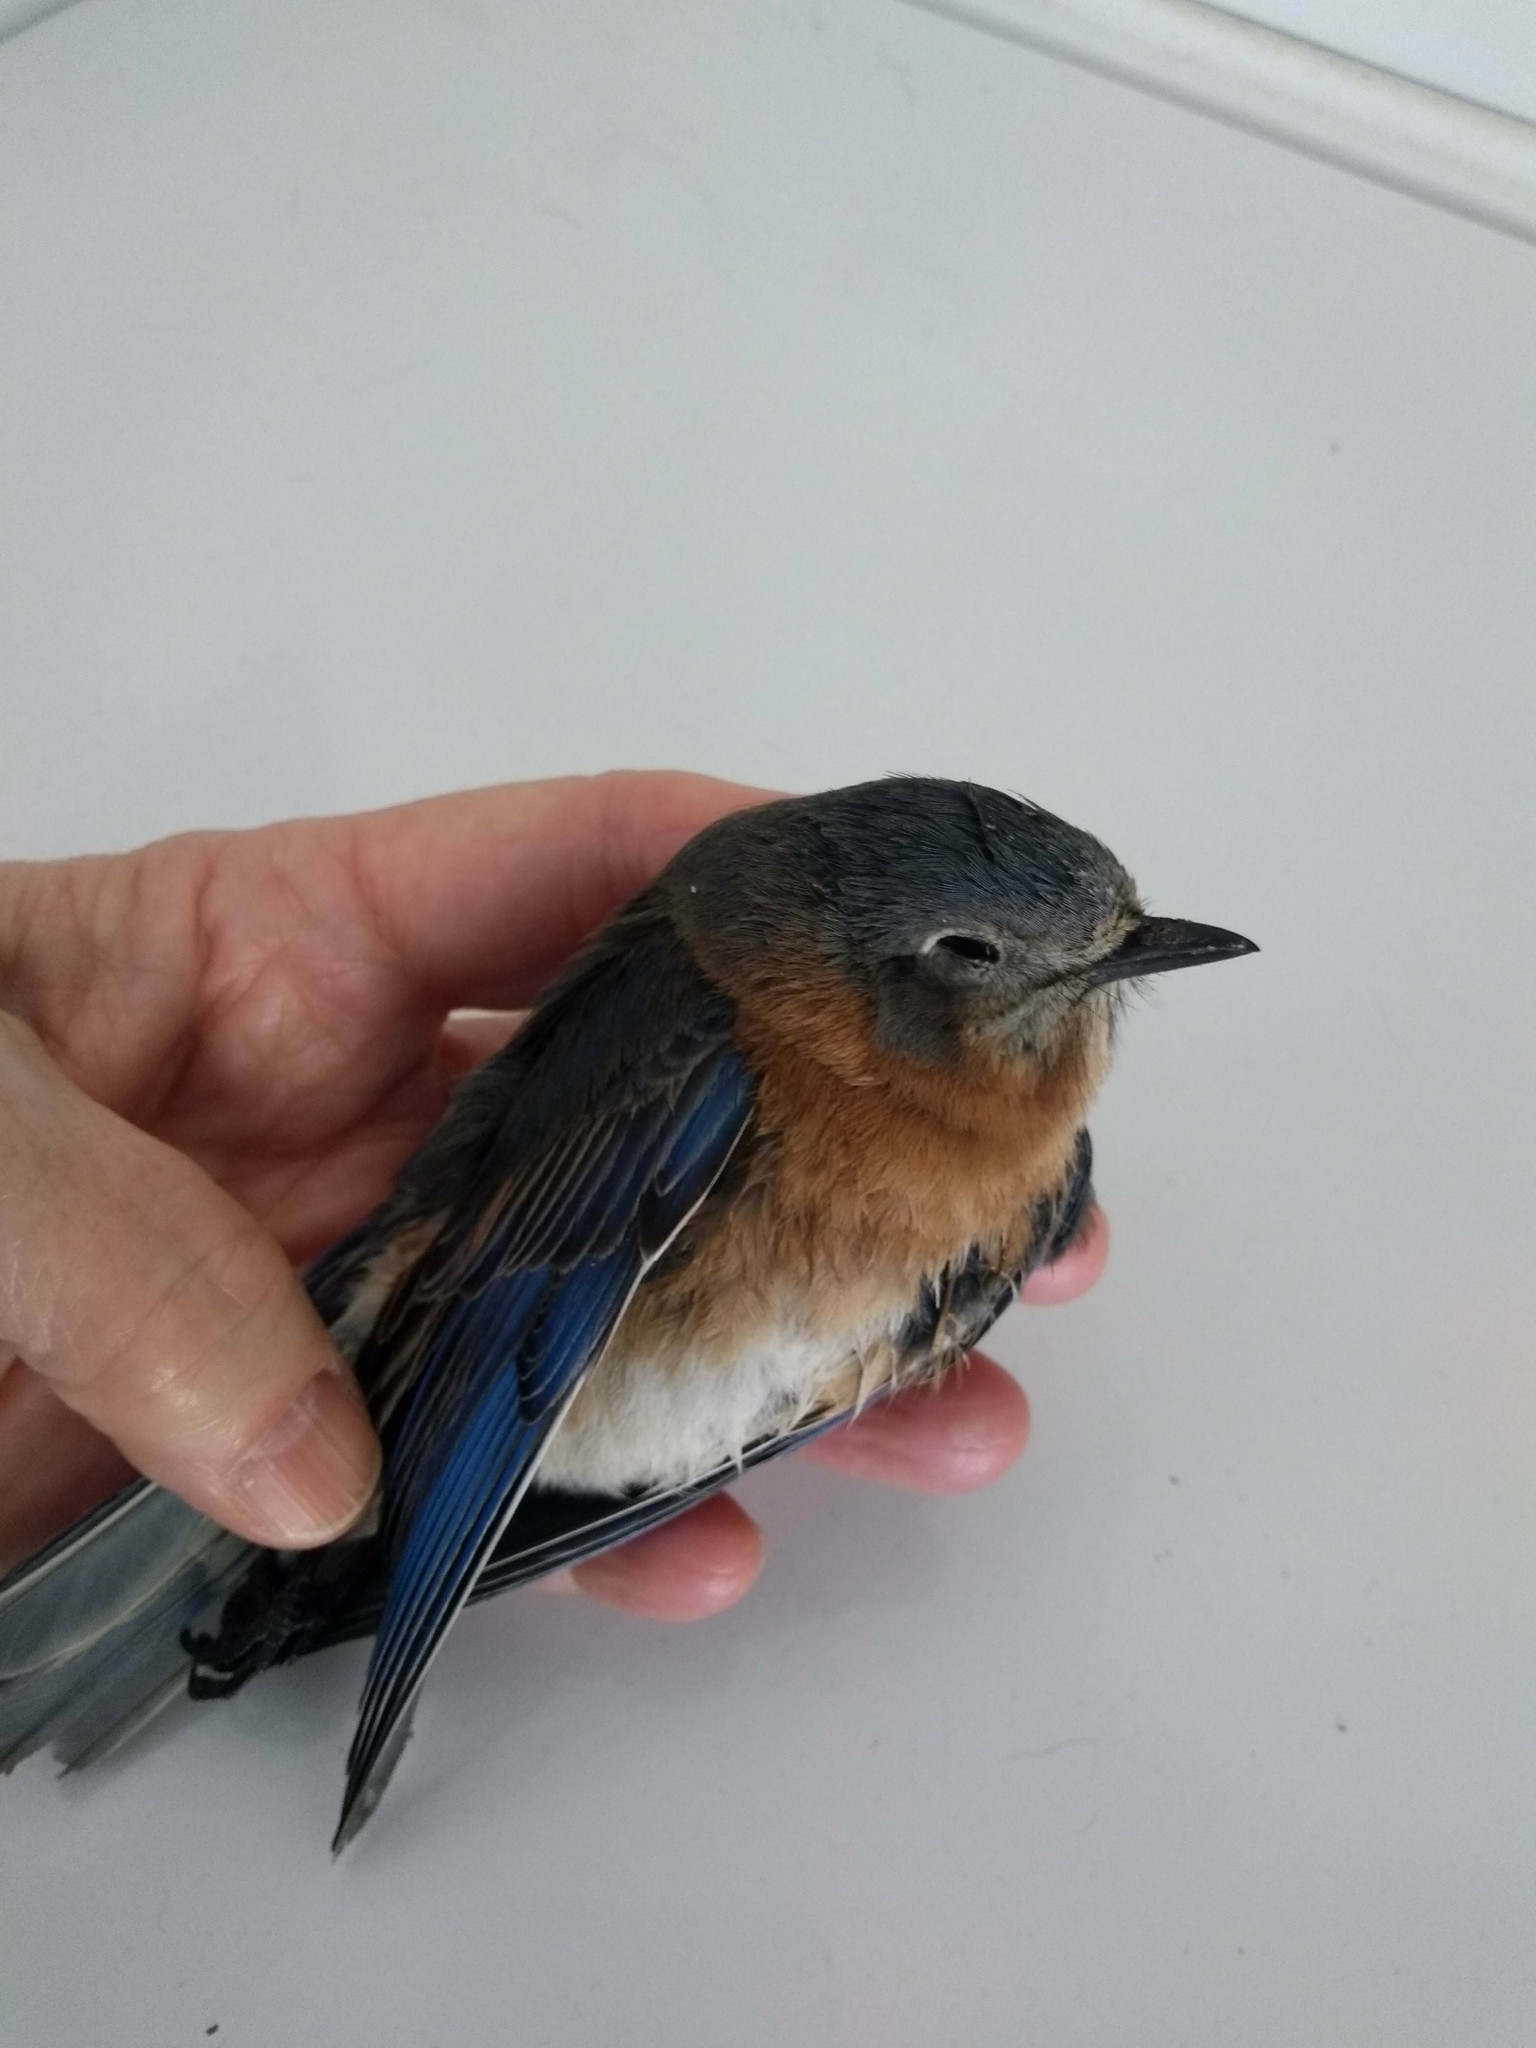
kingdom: Animalia
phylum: Chordata
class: Aves
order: Passeriformes
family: Turdidae
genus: Sialia
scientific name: Sialia sialis
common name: Eastern bluebird
